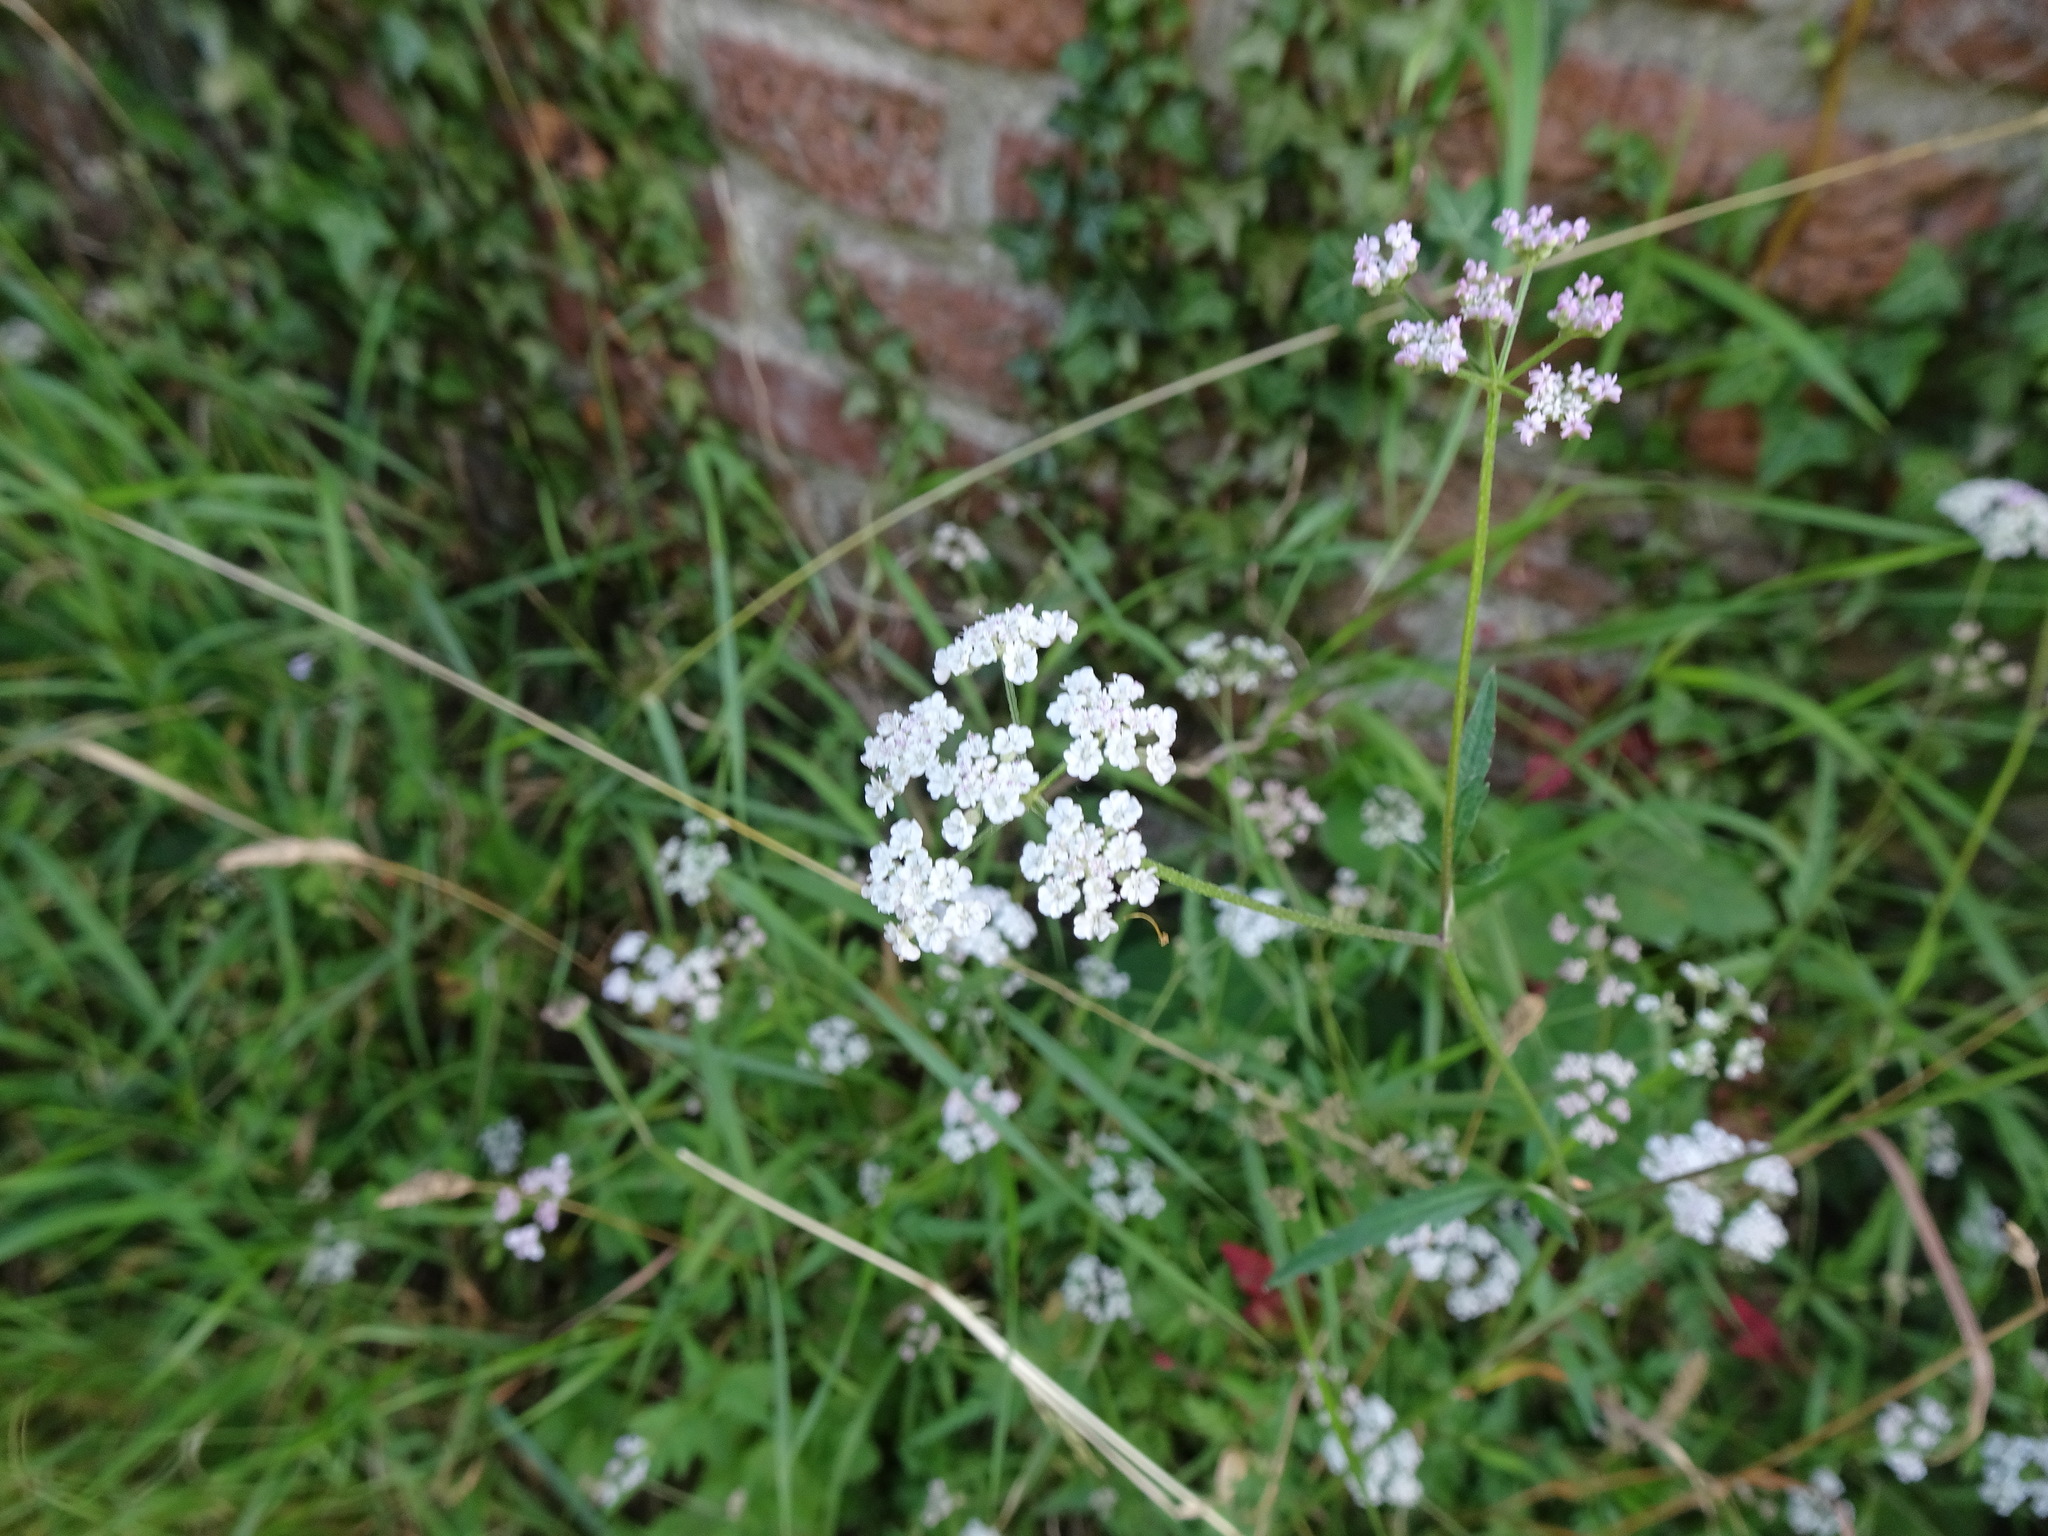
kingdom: Plantae
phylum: Tracheophyta
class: Magnoliopsida
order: Apiales
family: Apiaceae
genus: Torilis
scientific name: Torilis japonica
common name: Upright hedge-parsley
